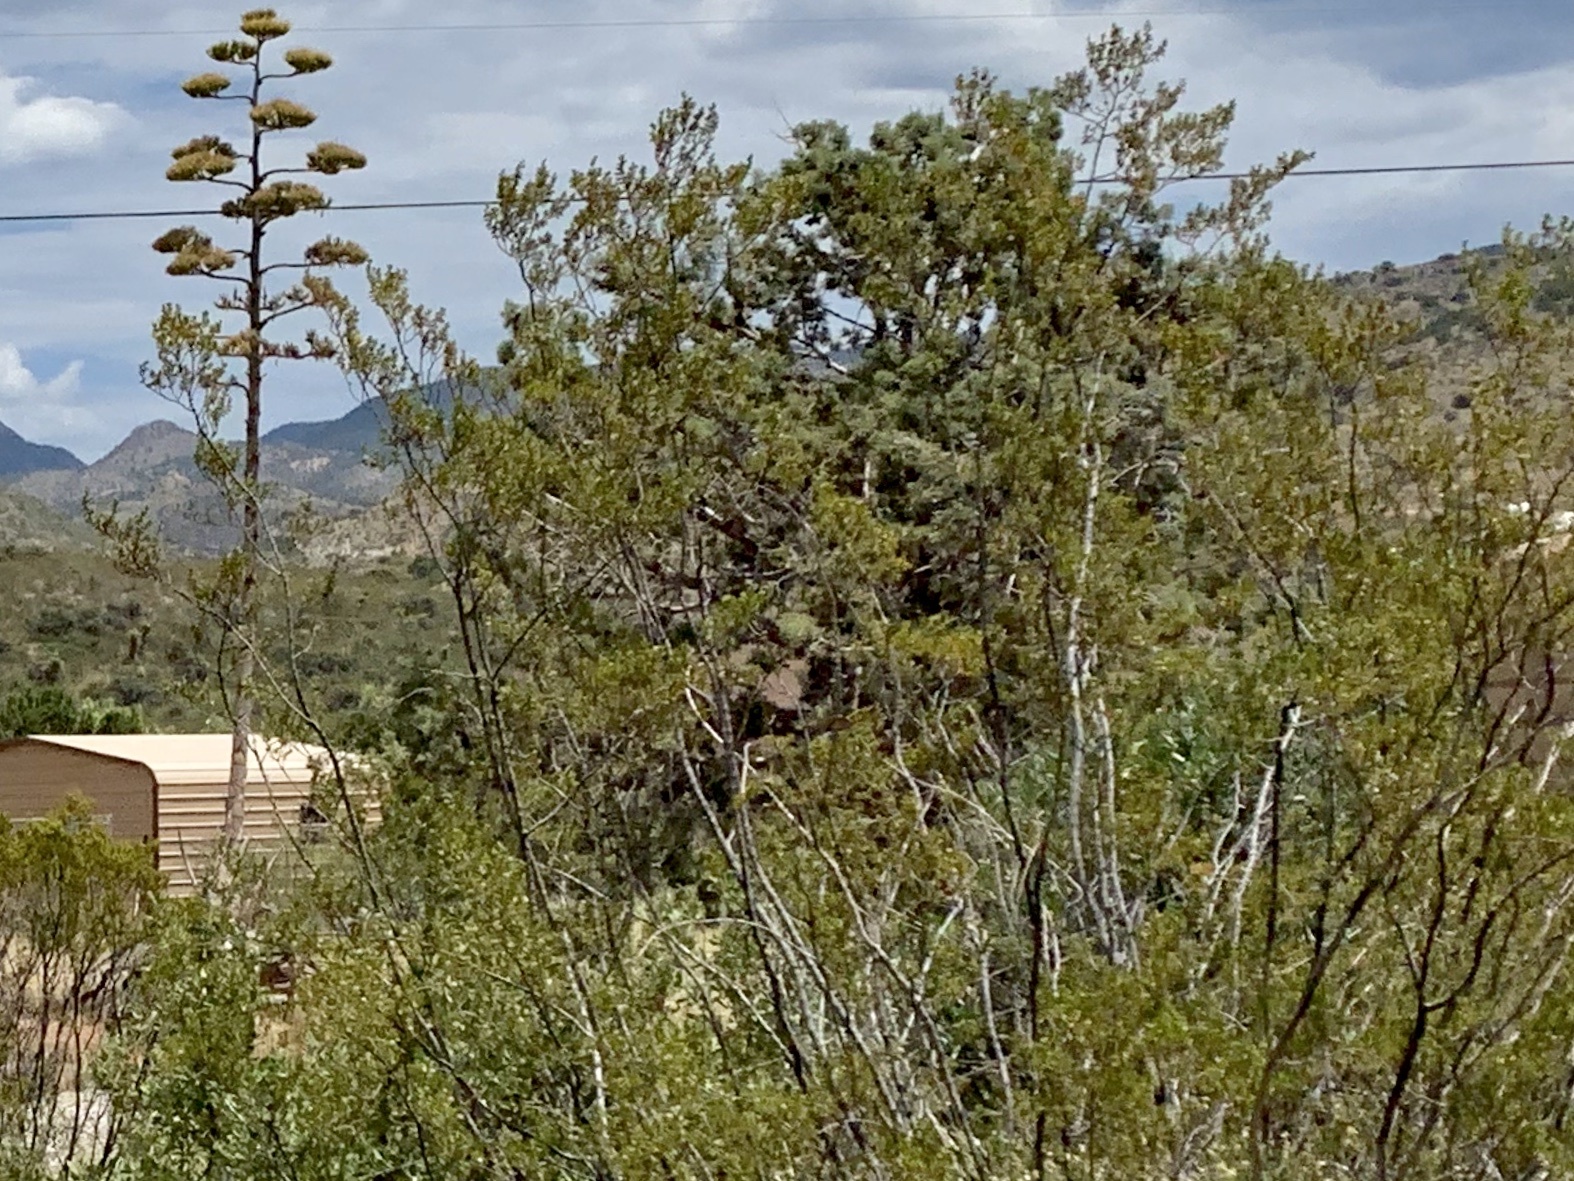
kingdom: Plantae
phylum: Tracheophyta
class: Magnoliopsida
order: Zygophyllales
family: Zygophyllaceae
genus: Larrea
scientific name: Larrea tridentata
